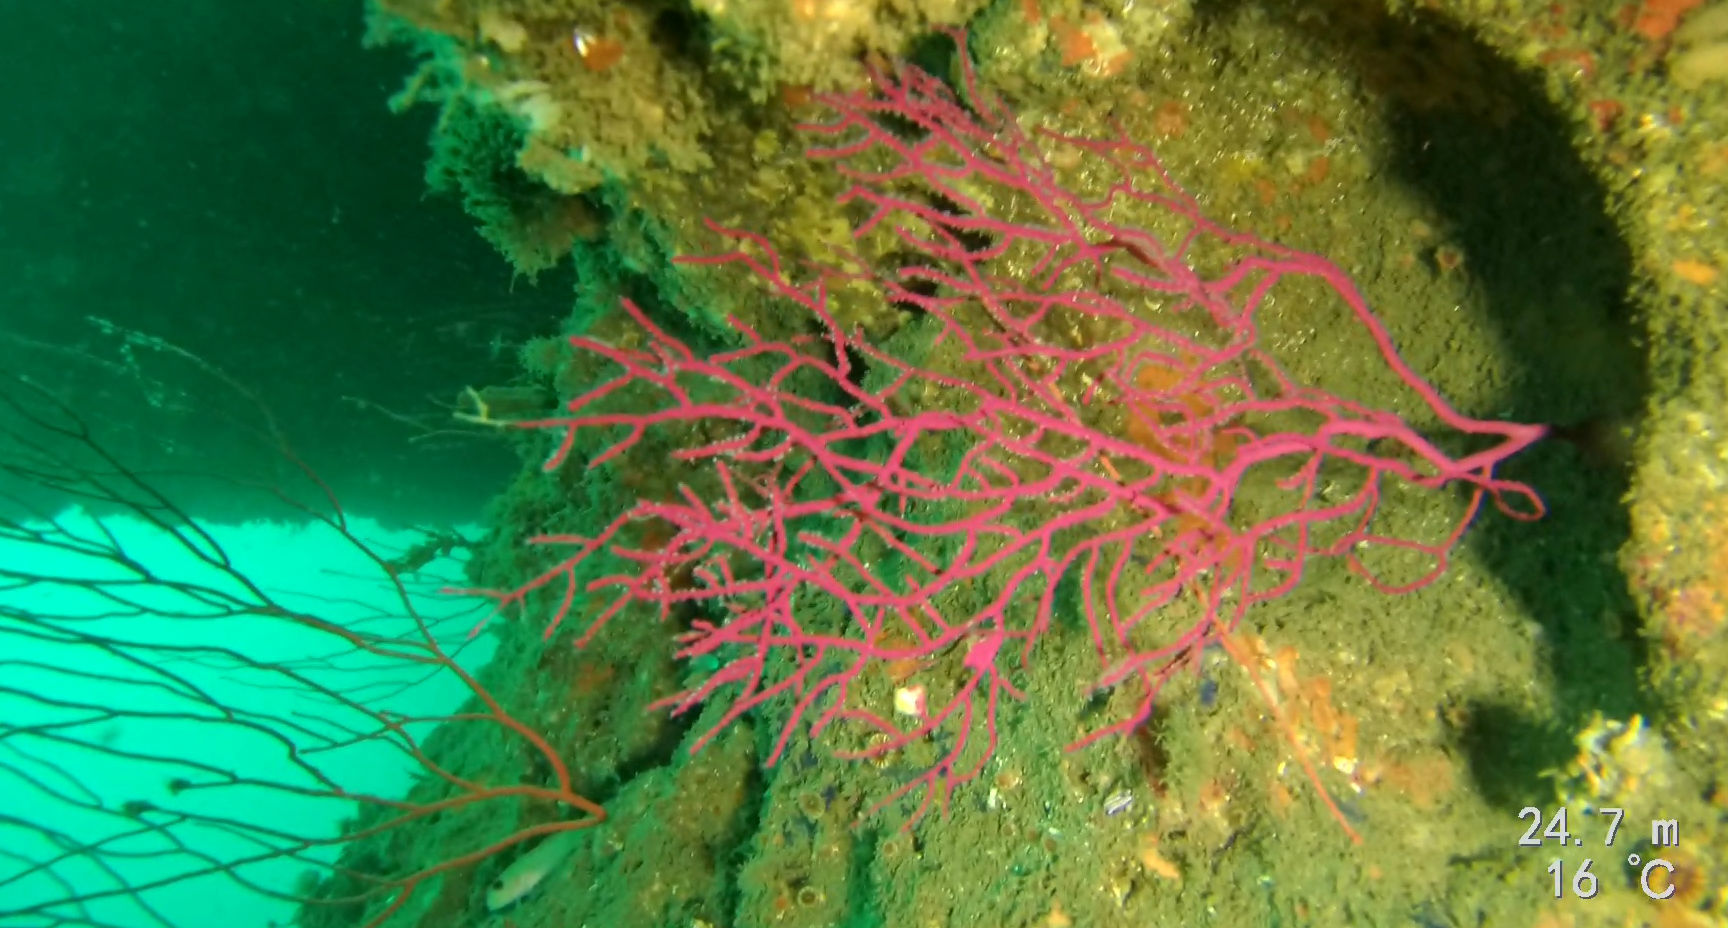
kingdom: Animalia
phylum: Cnidaria
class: Anthozoa
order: Malacalcyonacea
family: Gorgoniidae
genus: Leptogorgia
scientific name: Leptogorgia chilensis
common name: Carmine sea spray
